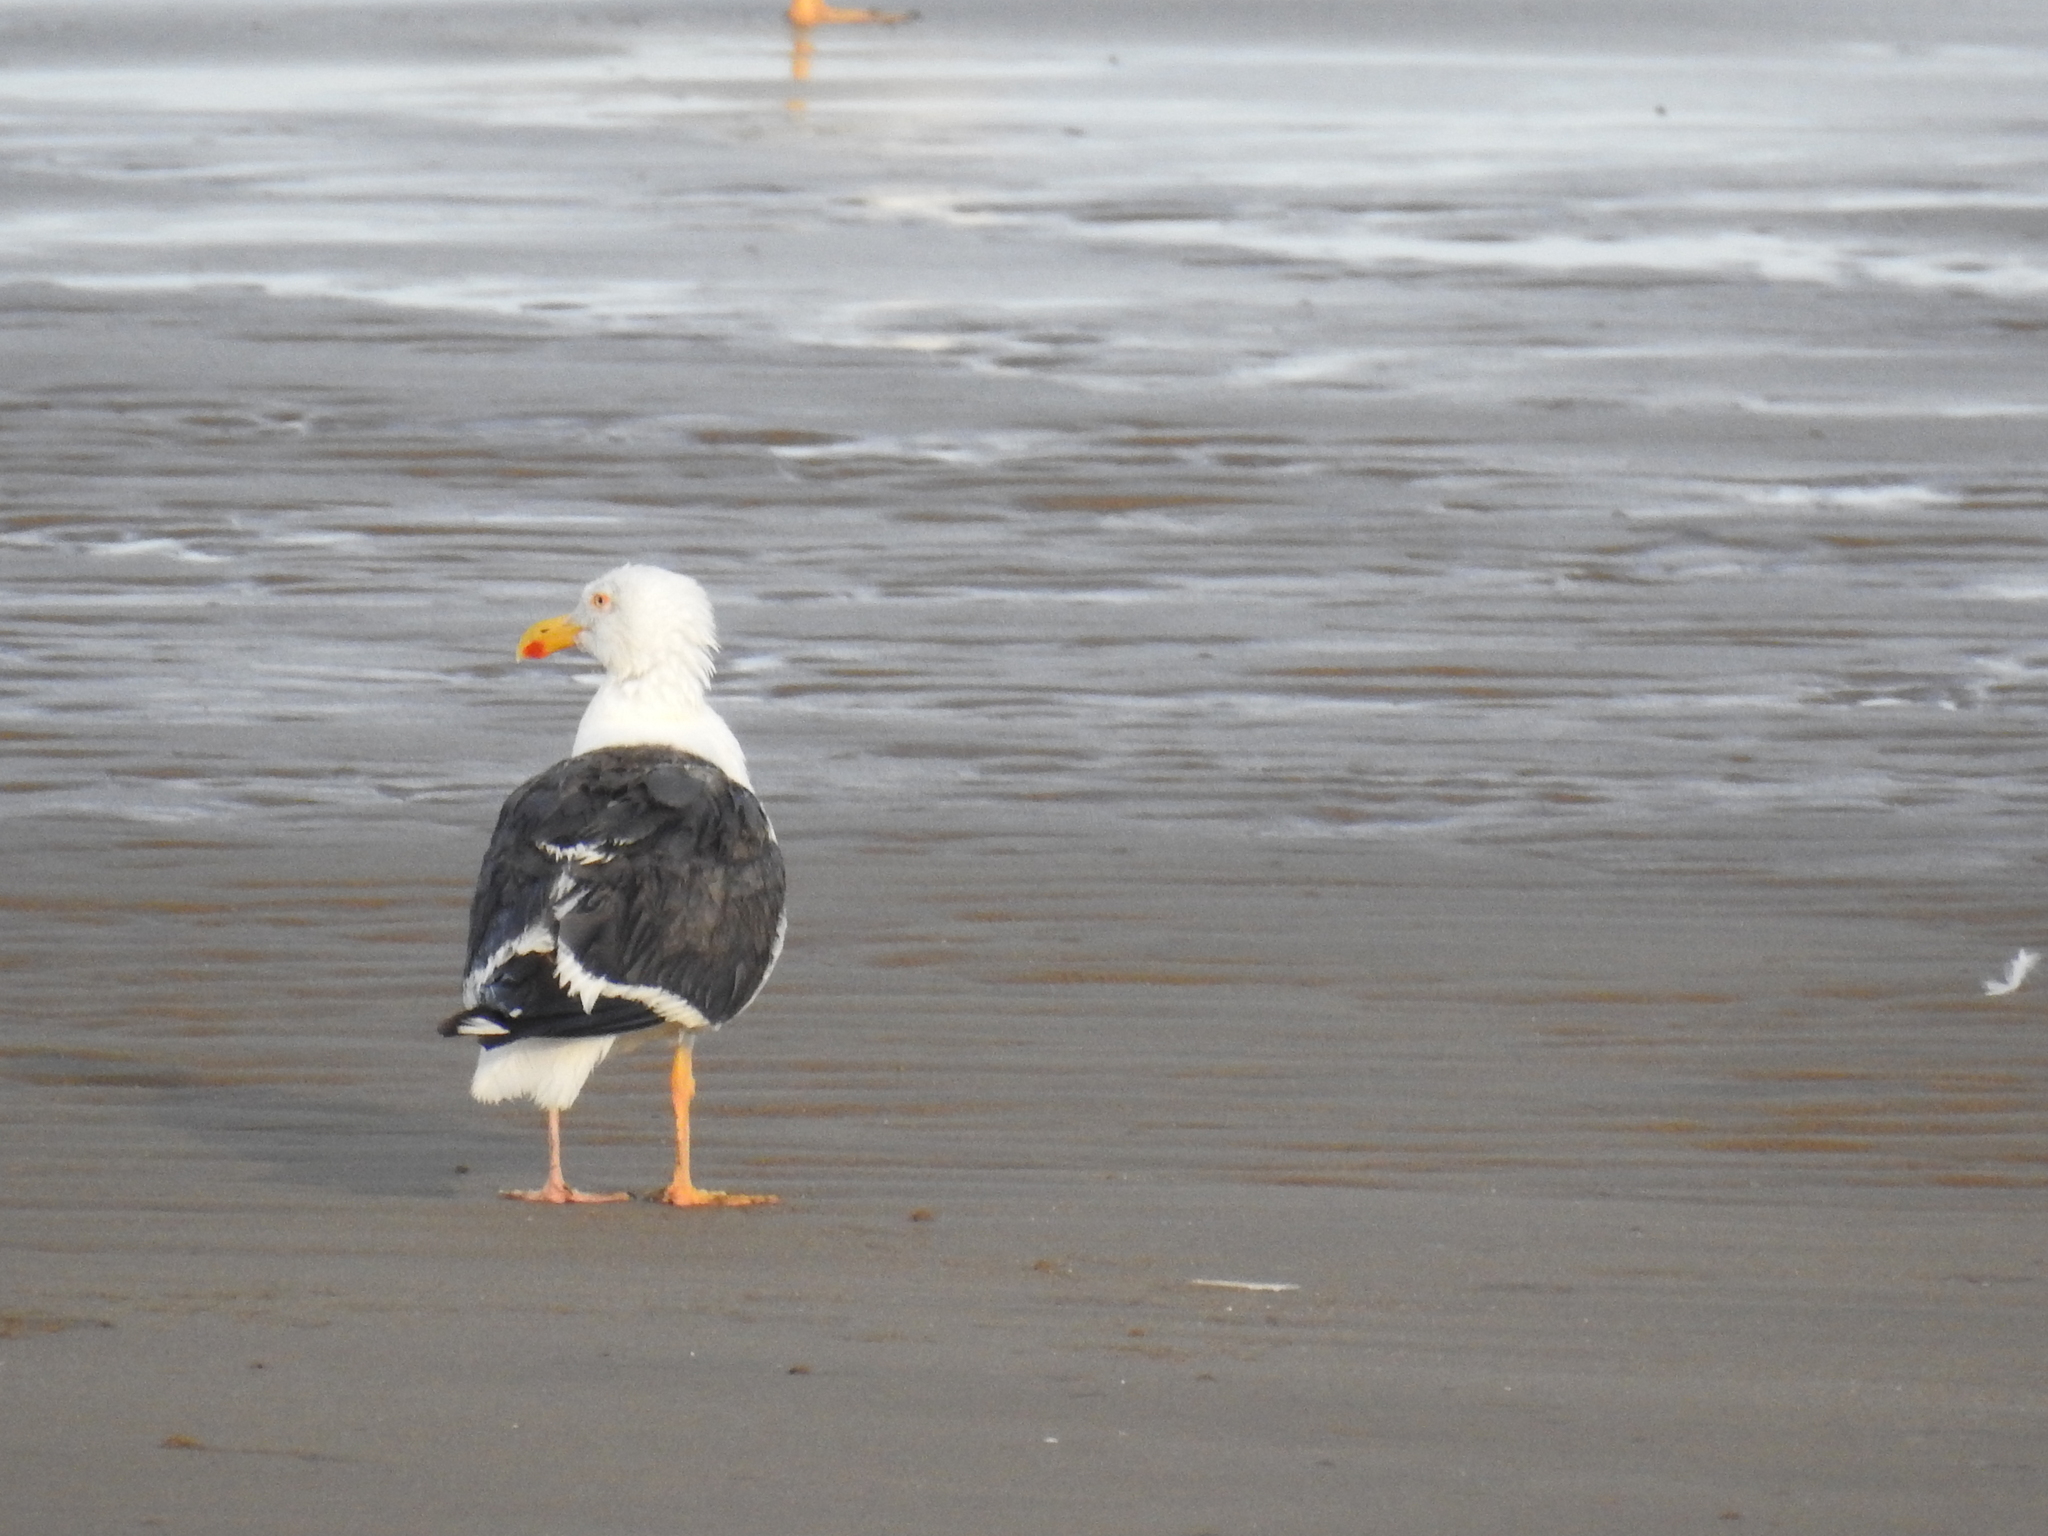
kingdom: Animalia
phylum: Chordata
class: Aves
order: Charadriiformes
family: Laridae
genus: Larus
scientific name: Larus livens
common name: Yellow-footed gull
